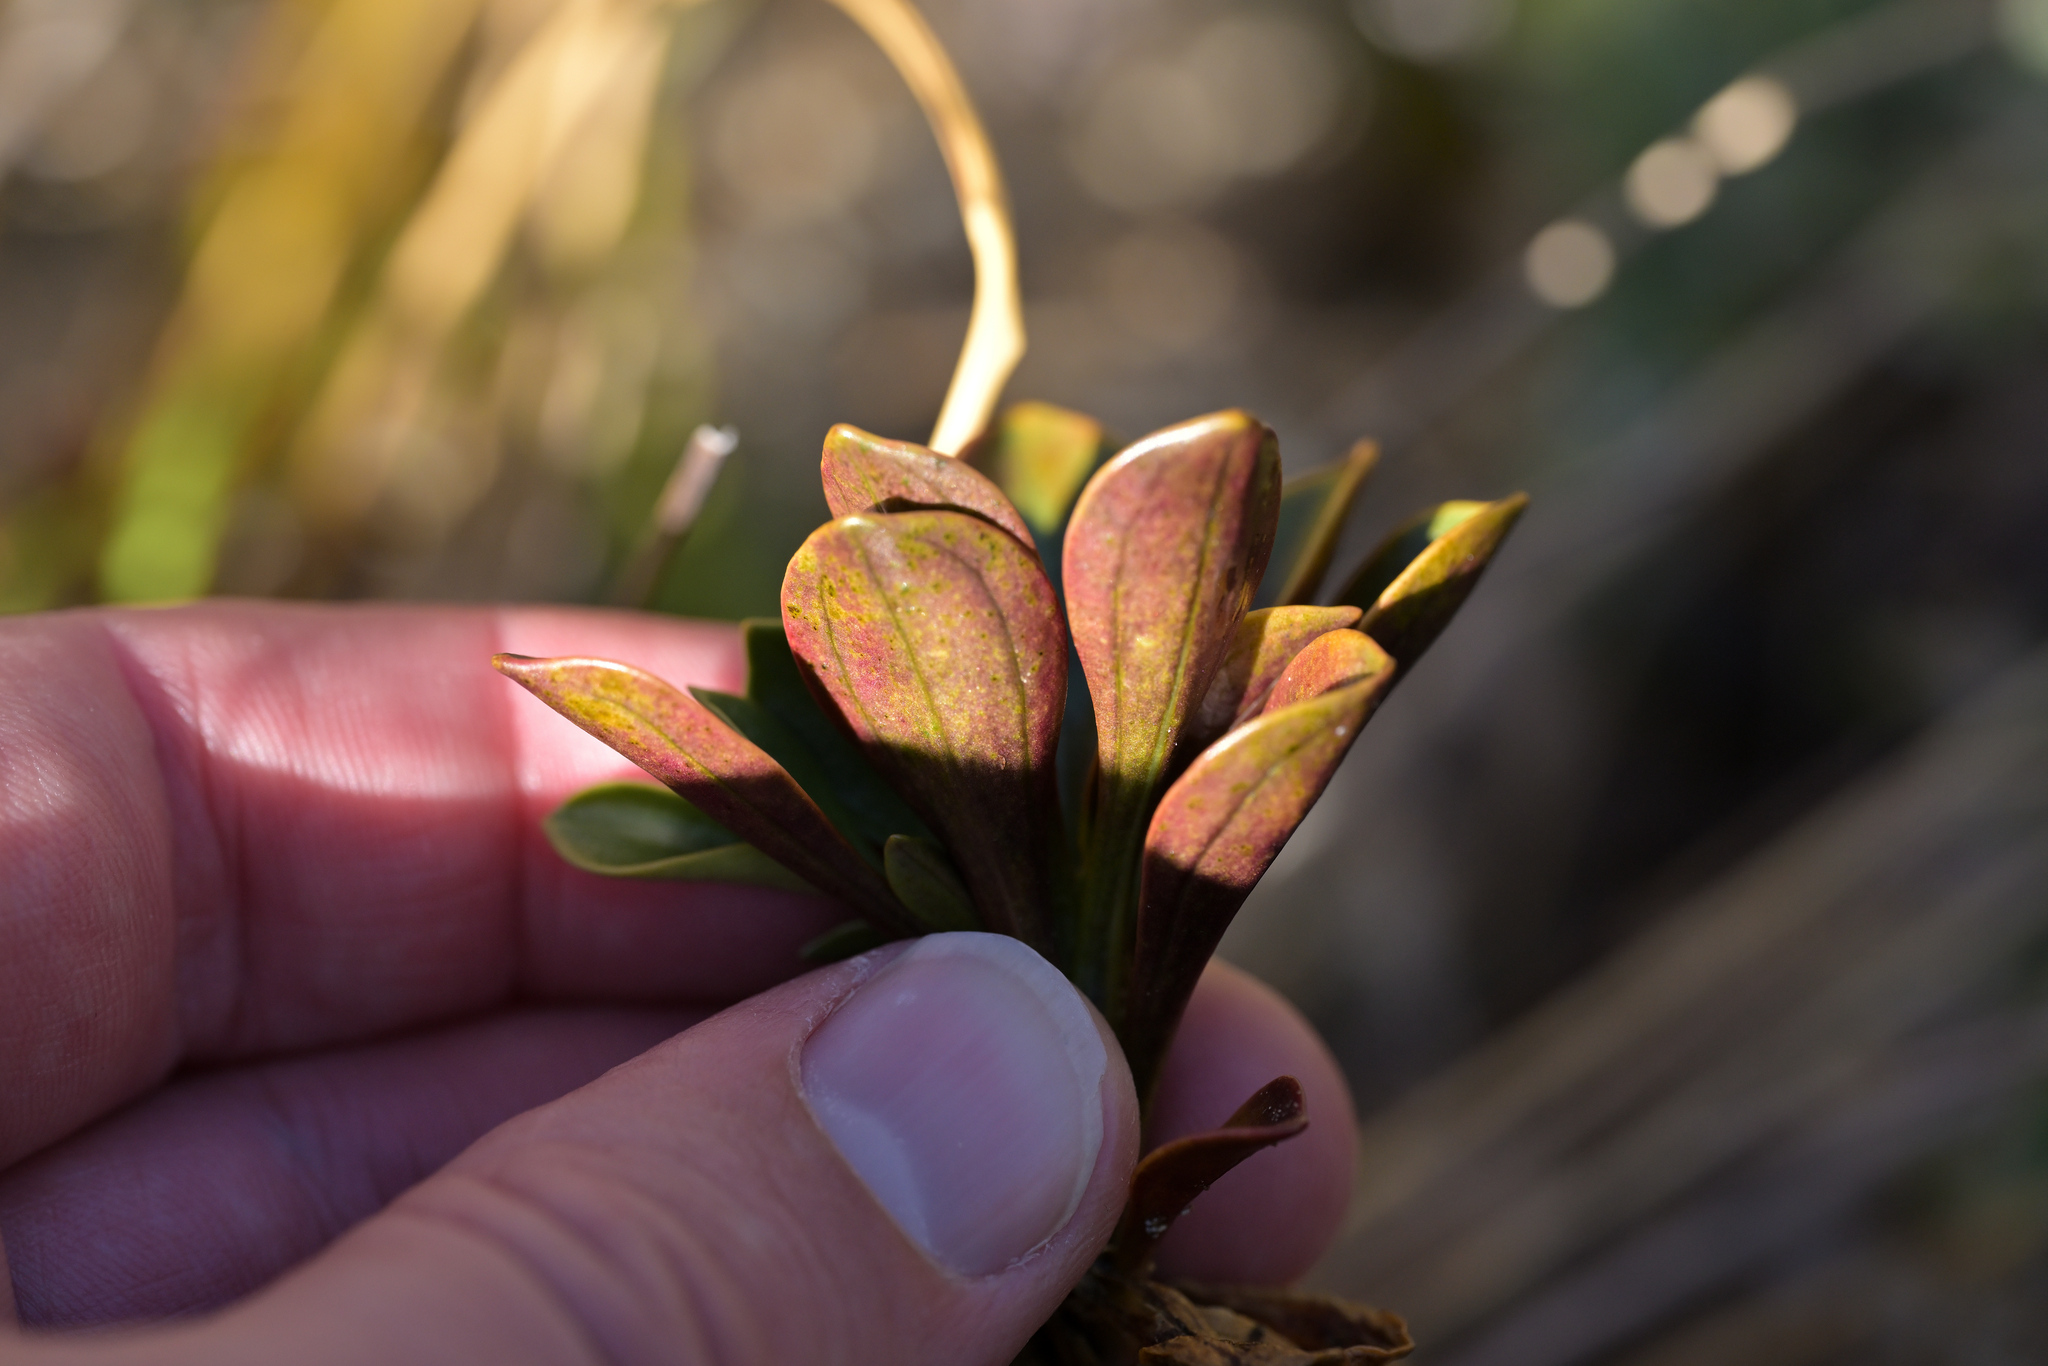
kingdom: Plantae
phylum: Tracheophyta
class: Magnoliopsida
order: Gentianales
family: Gentianaceae
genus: Gentianella
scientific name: Gentianella impressinervia
